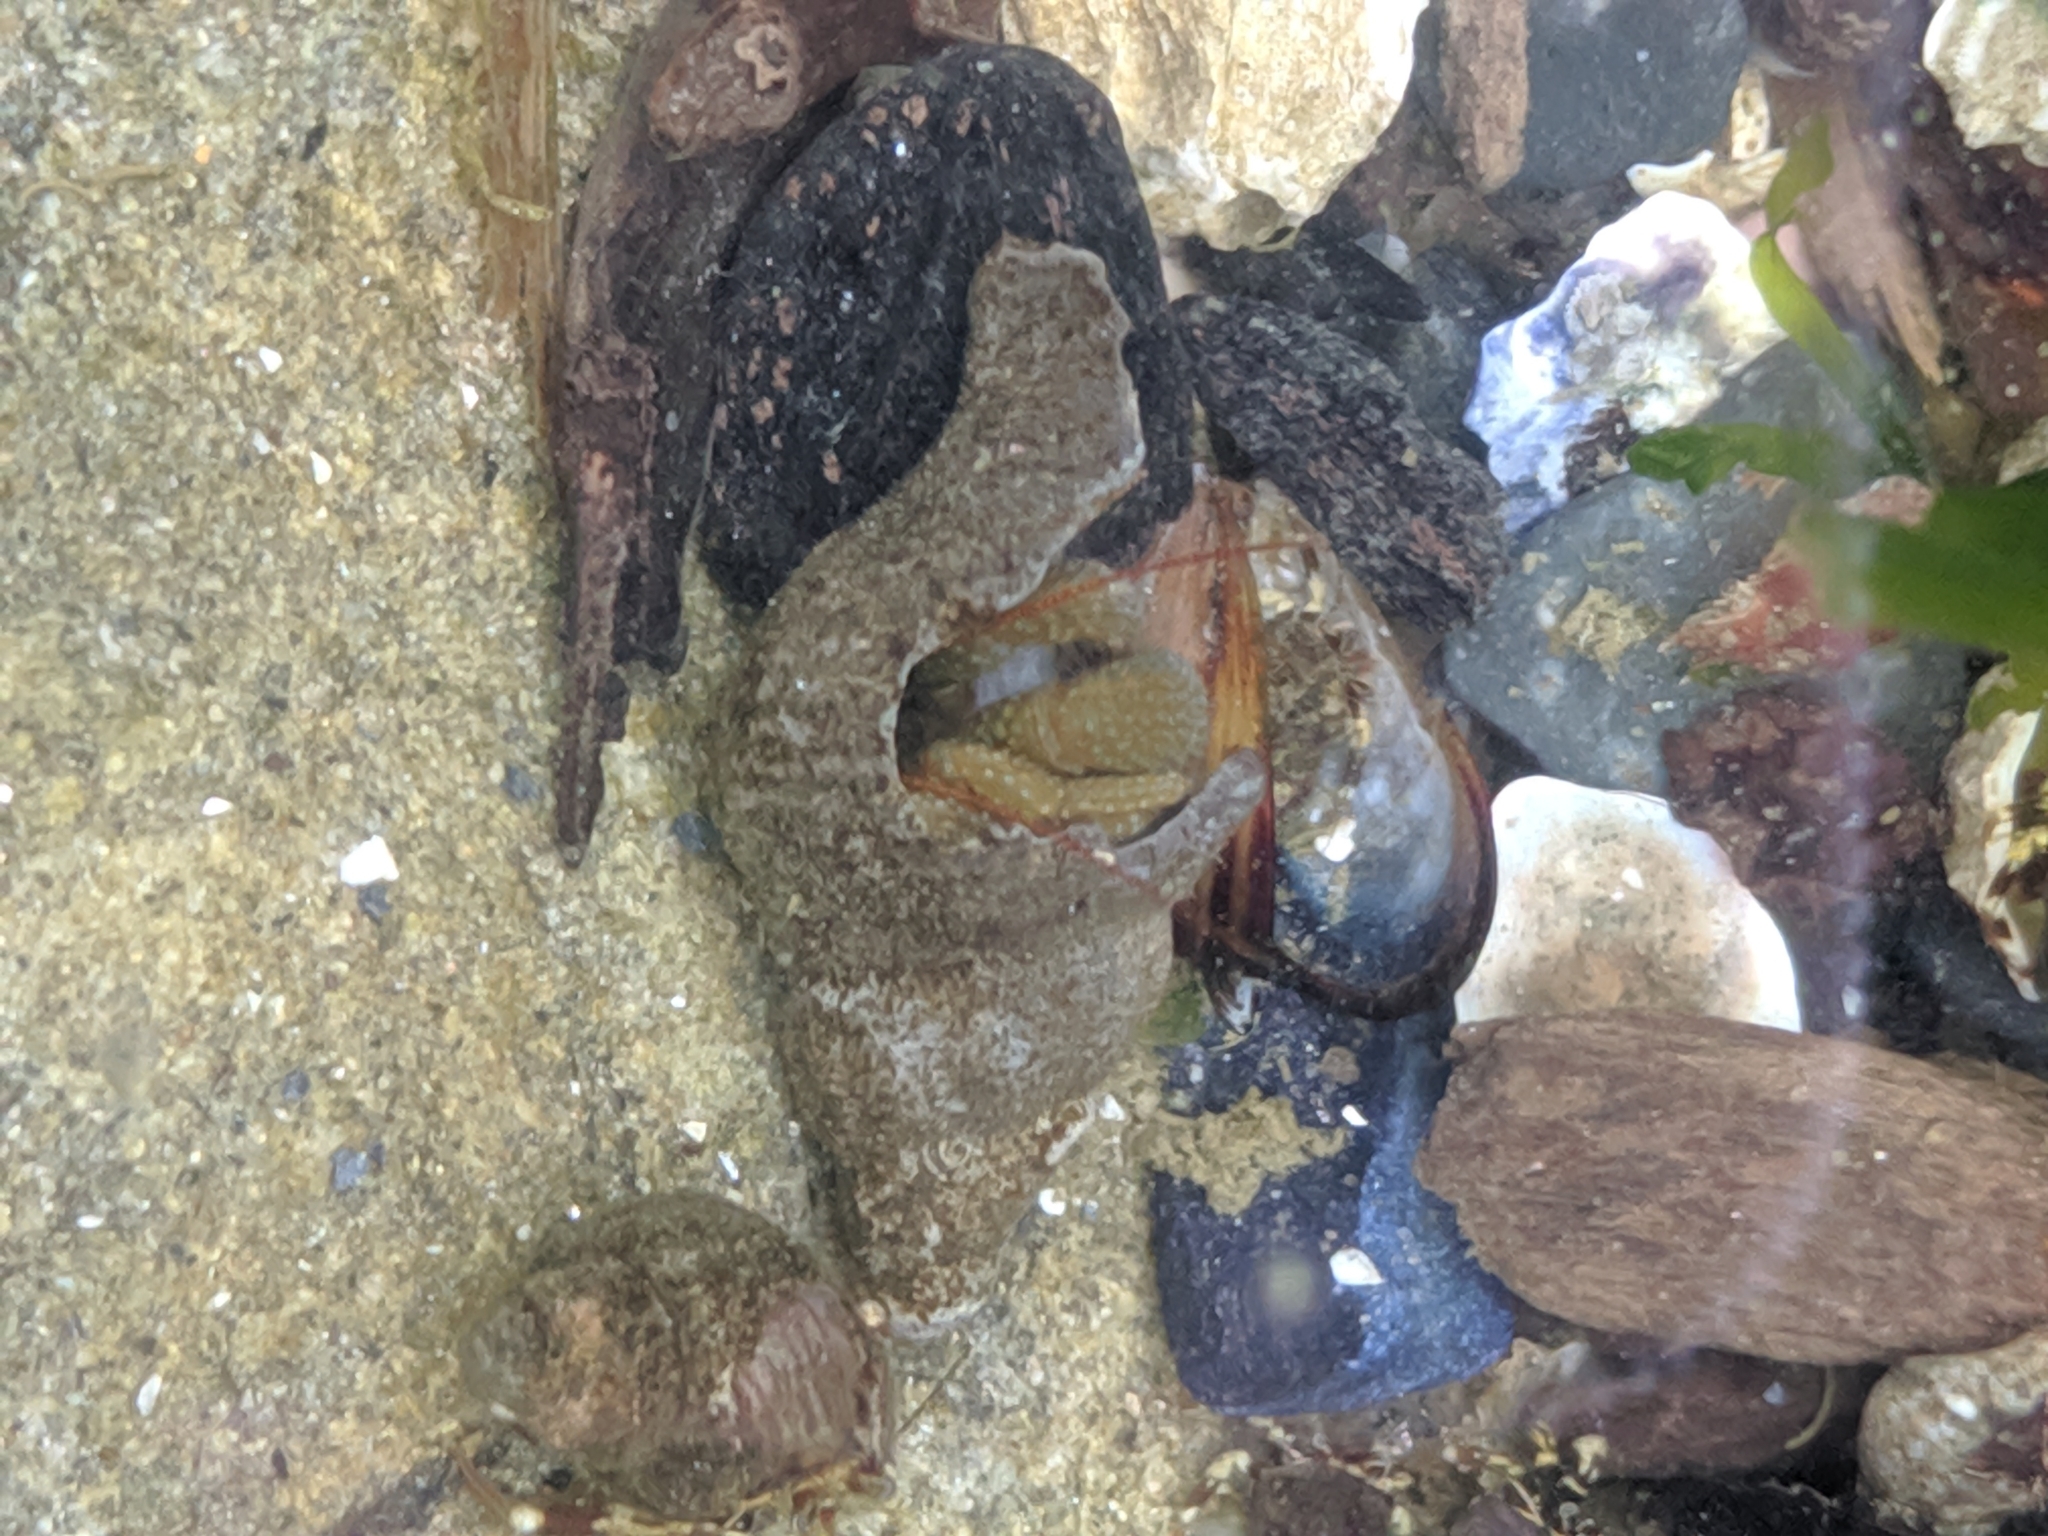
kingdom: Animalia
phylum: Arthropoda
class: Malacostraca
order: Decapoda
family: Paguridae
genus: Pagurus
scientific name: Pagurus granosimanus
